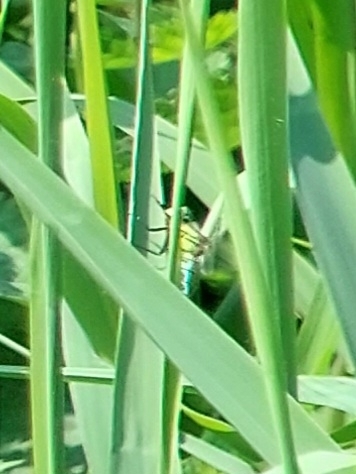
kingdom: Animalia
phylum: Arthropoda
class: Insecta
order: Odonata
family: Aeshnidae
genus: Brachytron
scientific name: Brachytron pratense
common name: Hairy hawker
